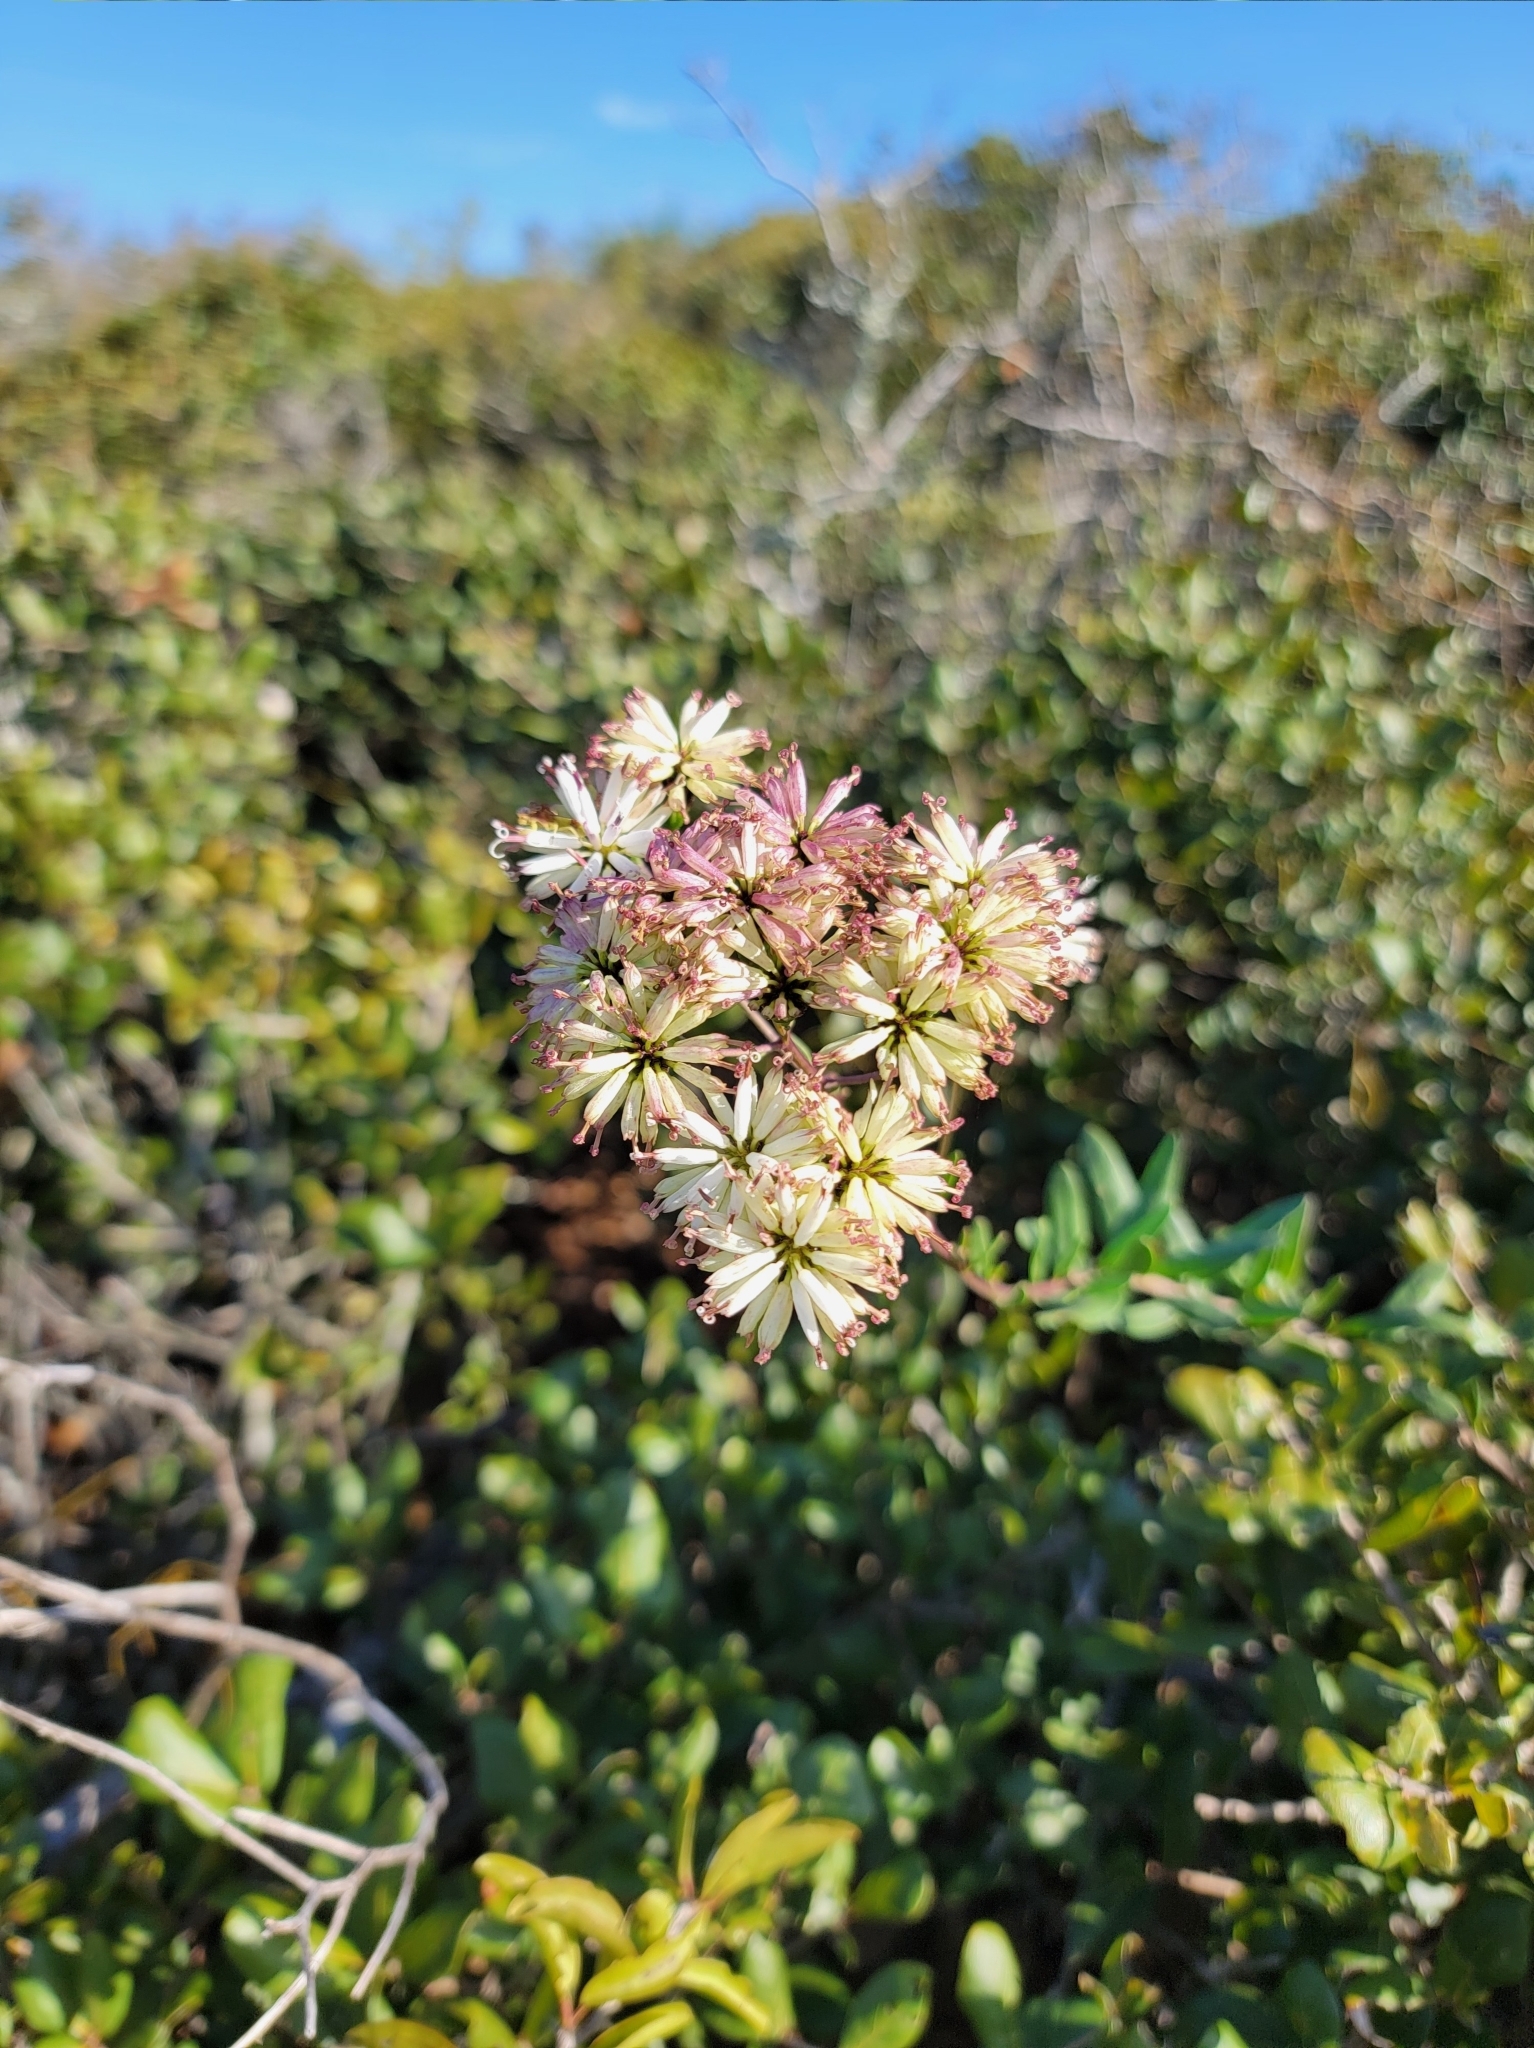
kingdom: Plantae
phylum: Tracheophyta
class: Magnoliopsida
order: Asterales
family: Asteraceae
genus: Palafoxia
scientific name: Palafoxia feayi
